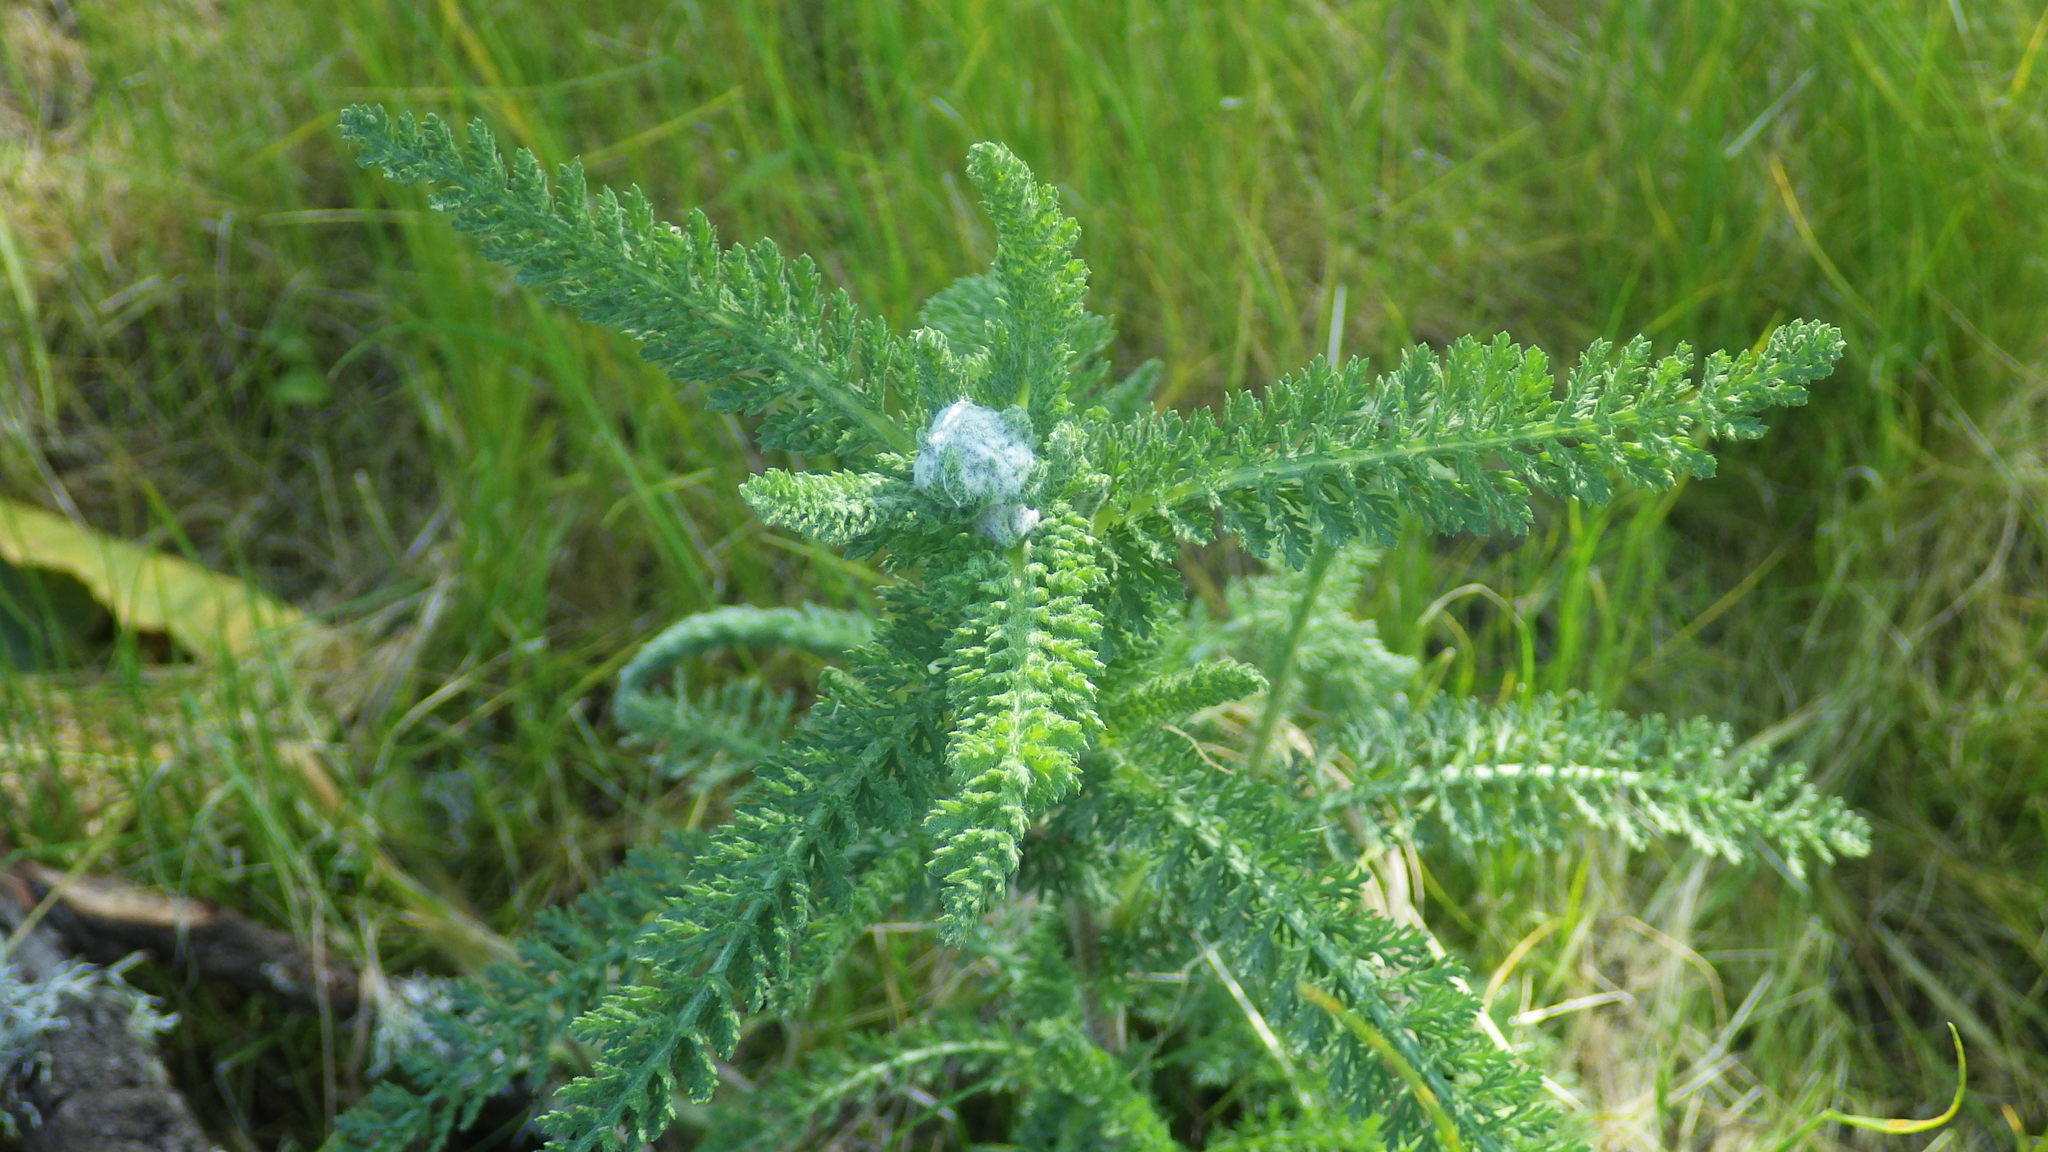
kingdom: Plantae
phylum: Tracheophyta
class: Magnoliopsida
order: Asterales
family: Asteraceae
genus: Achillea
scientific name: Achillea millefolium
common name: Yarrow
